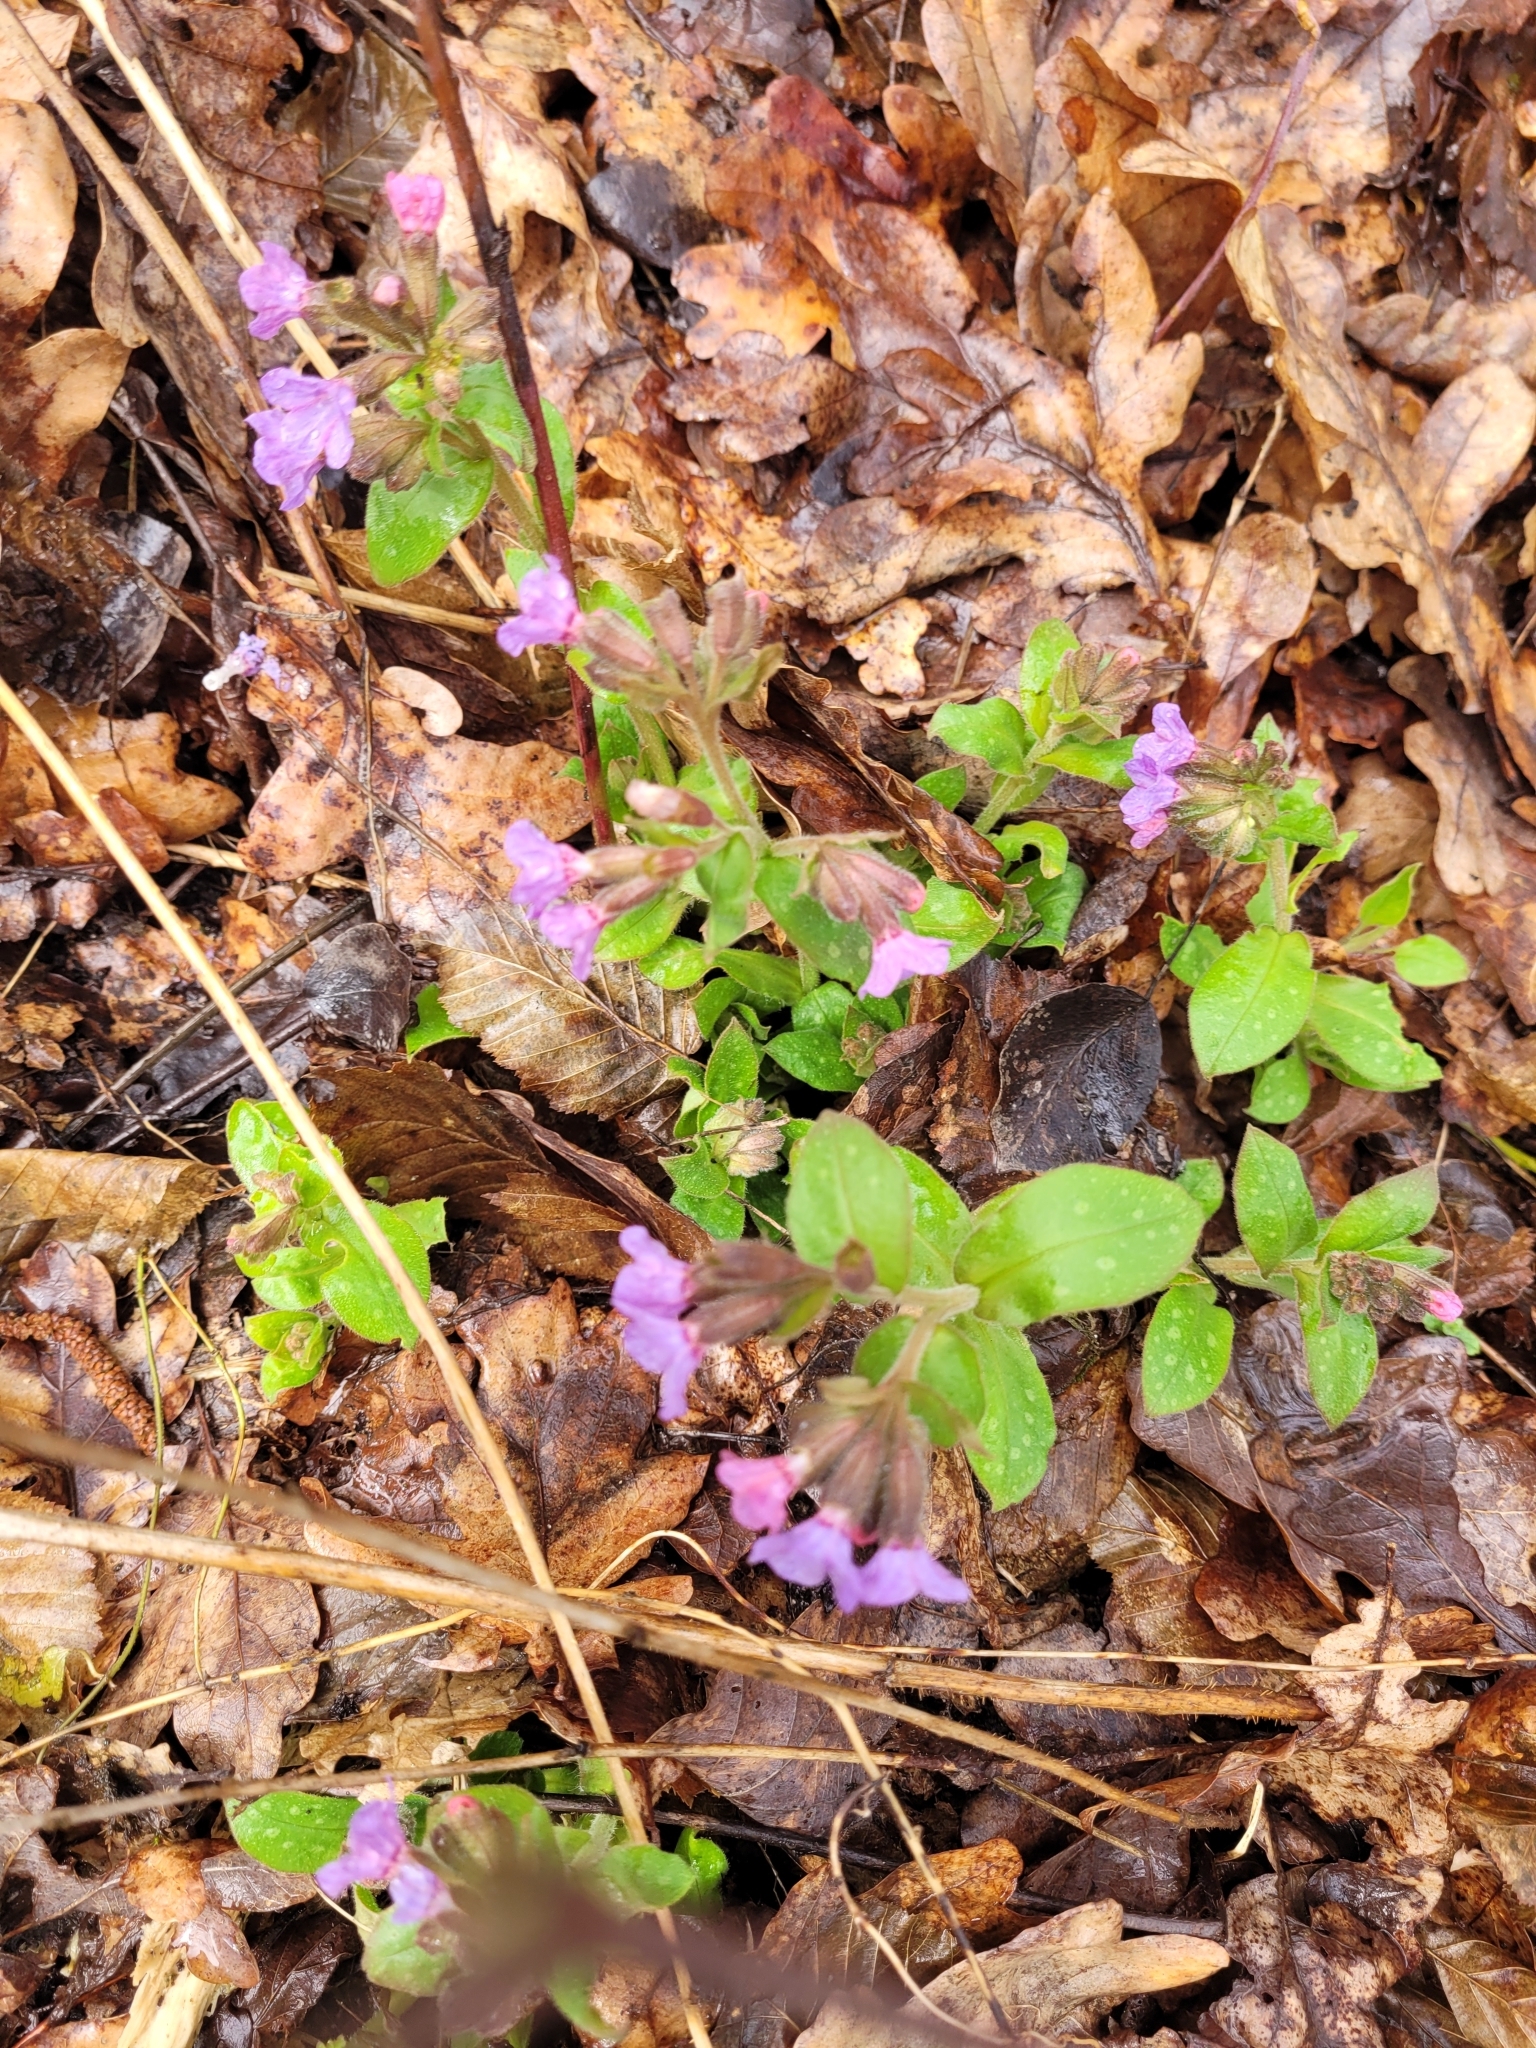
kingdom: Plantae
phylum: Tracheophyta
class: Magnoliopsida
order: Boraginales
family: Boraginaceae
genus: Pulmonaria
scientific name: Pulmonaria obscura
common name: Suffolk lungwort
